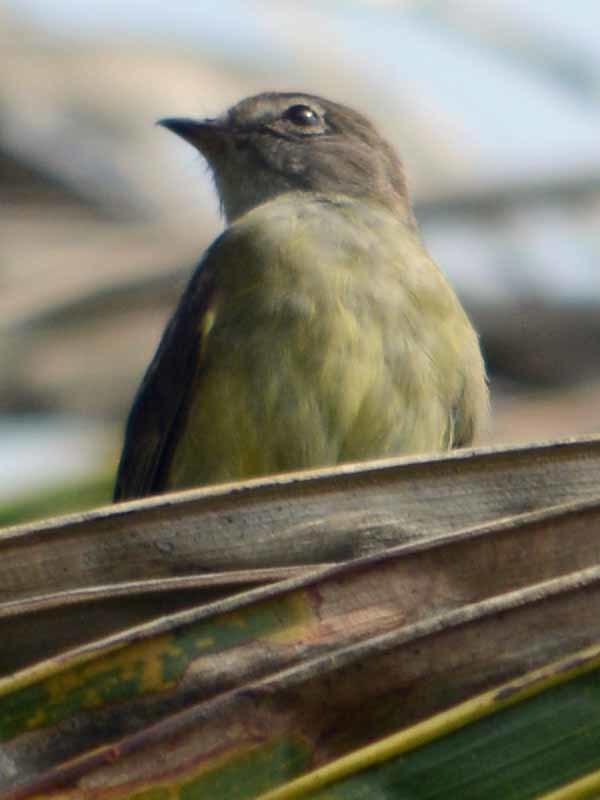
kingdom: Animalia
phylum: Chordata
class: Aves
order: Passeriformes
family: Tyrannidae
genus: Myiopagis
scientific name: Myiopagis viridicata
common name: Greenish elaenia
